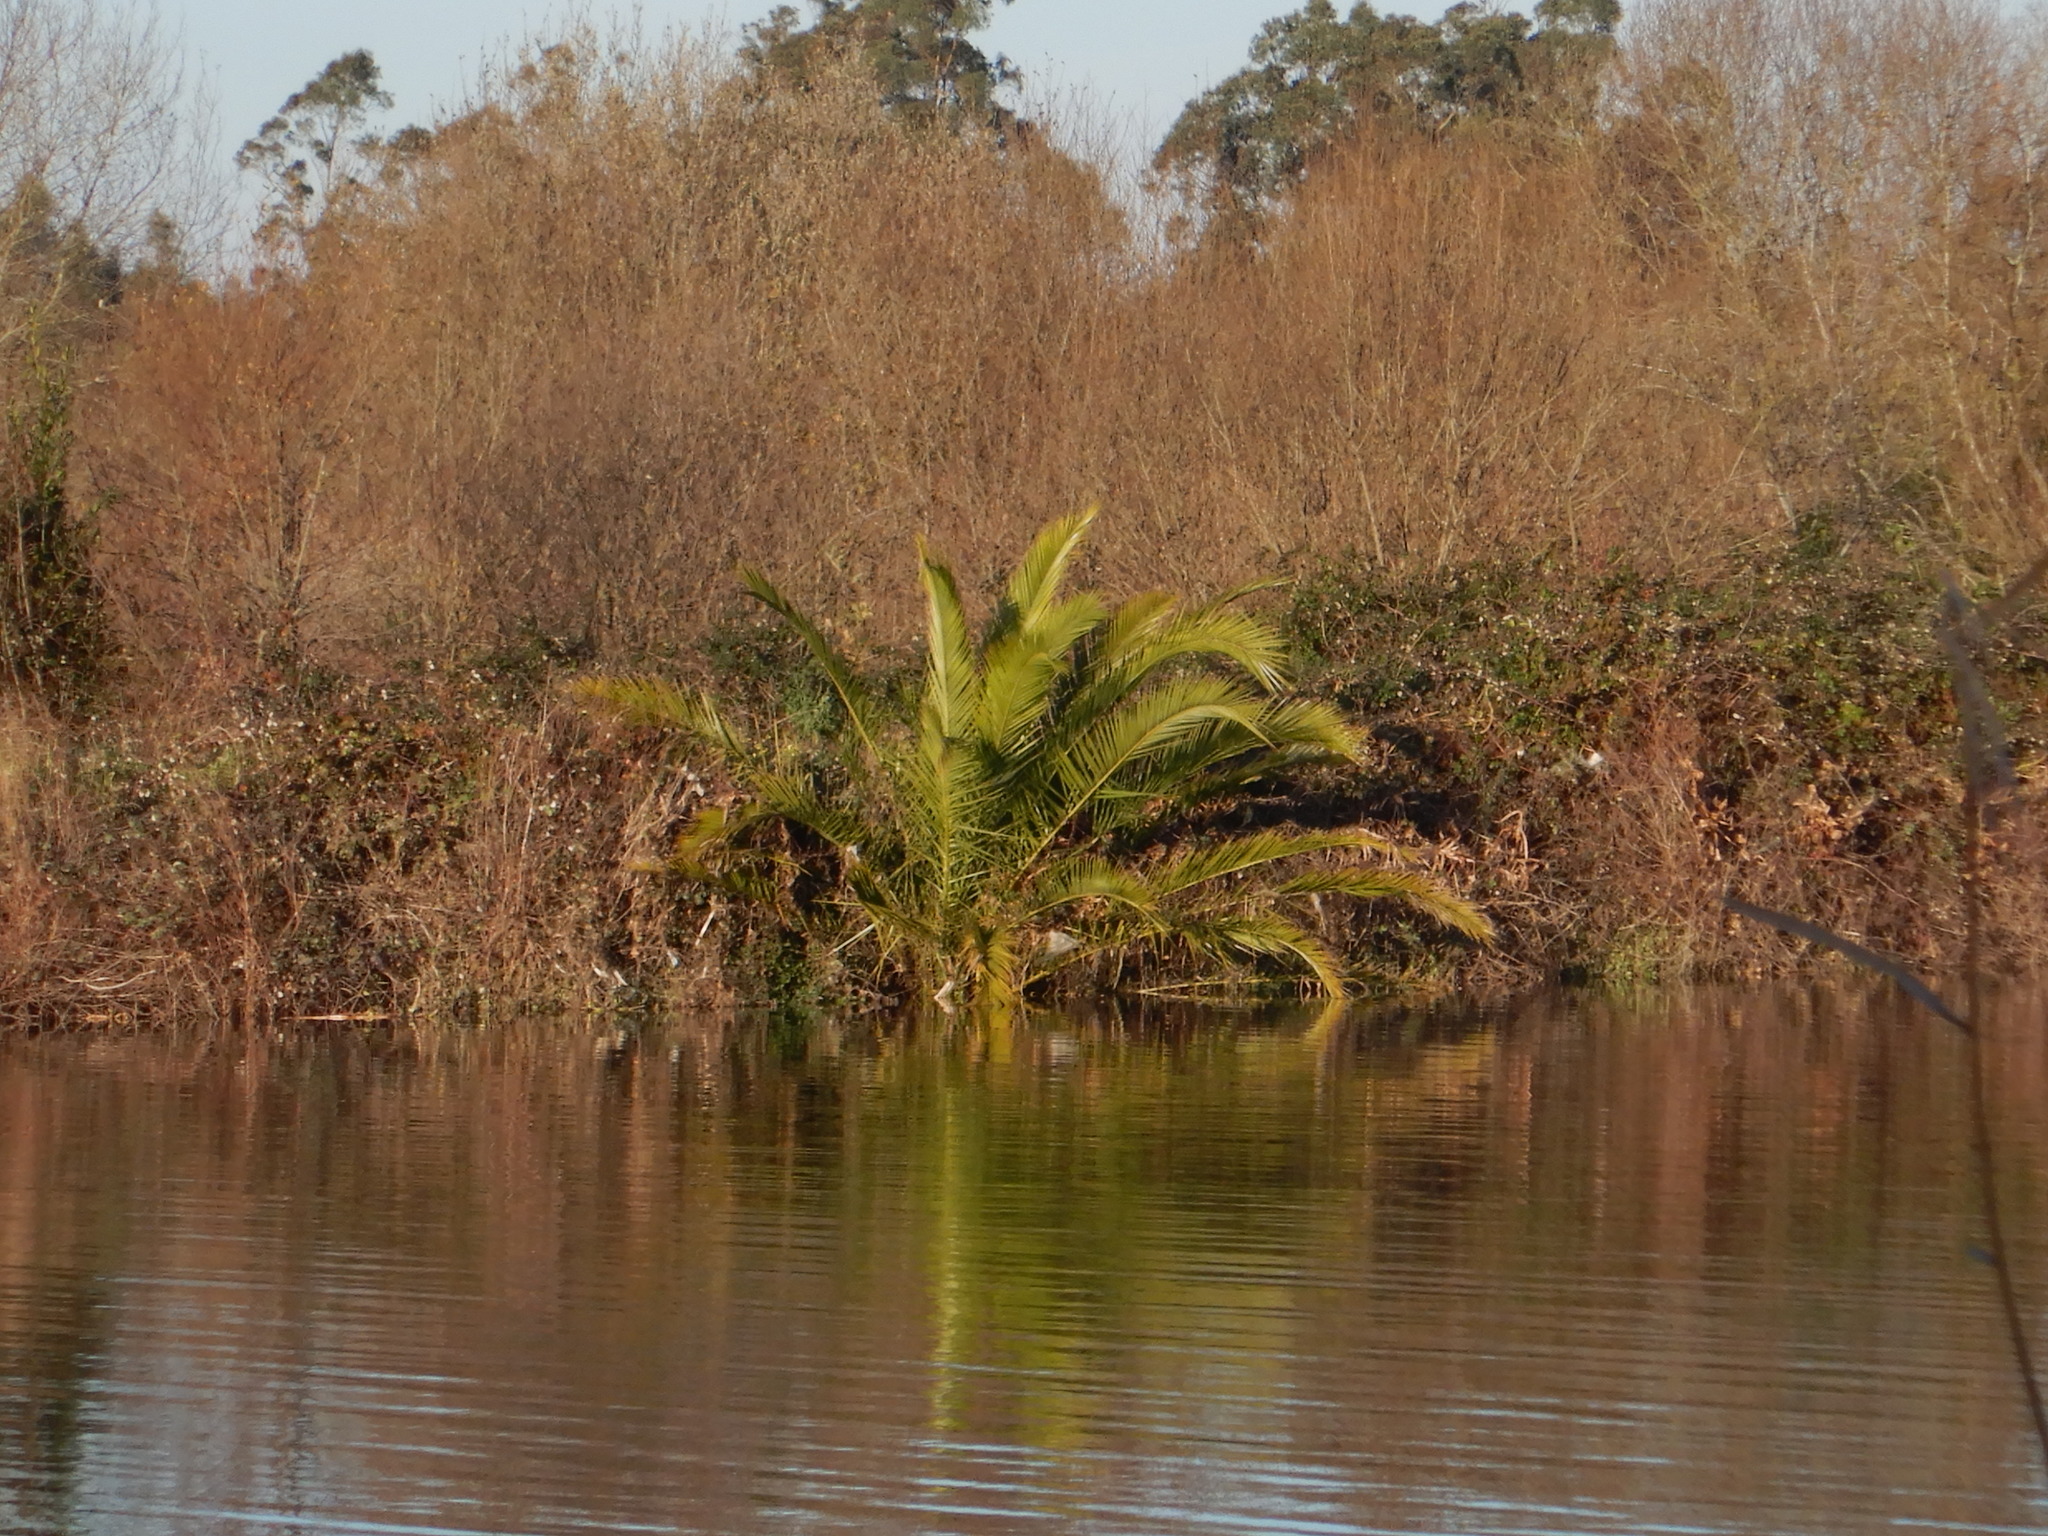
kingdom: Plantae
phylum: Tracheophyta
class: Liliopsida
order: Arecales
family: Arecaceae
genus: Phoenix
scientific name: Phoenix canariensis
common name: Canary island date palm
